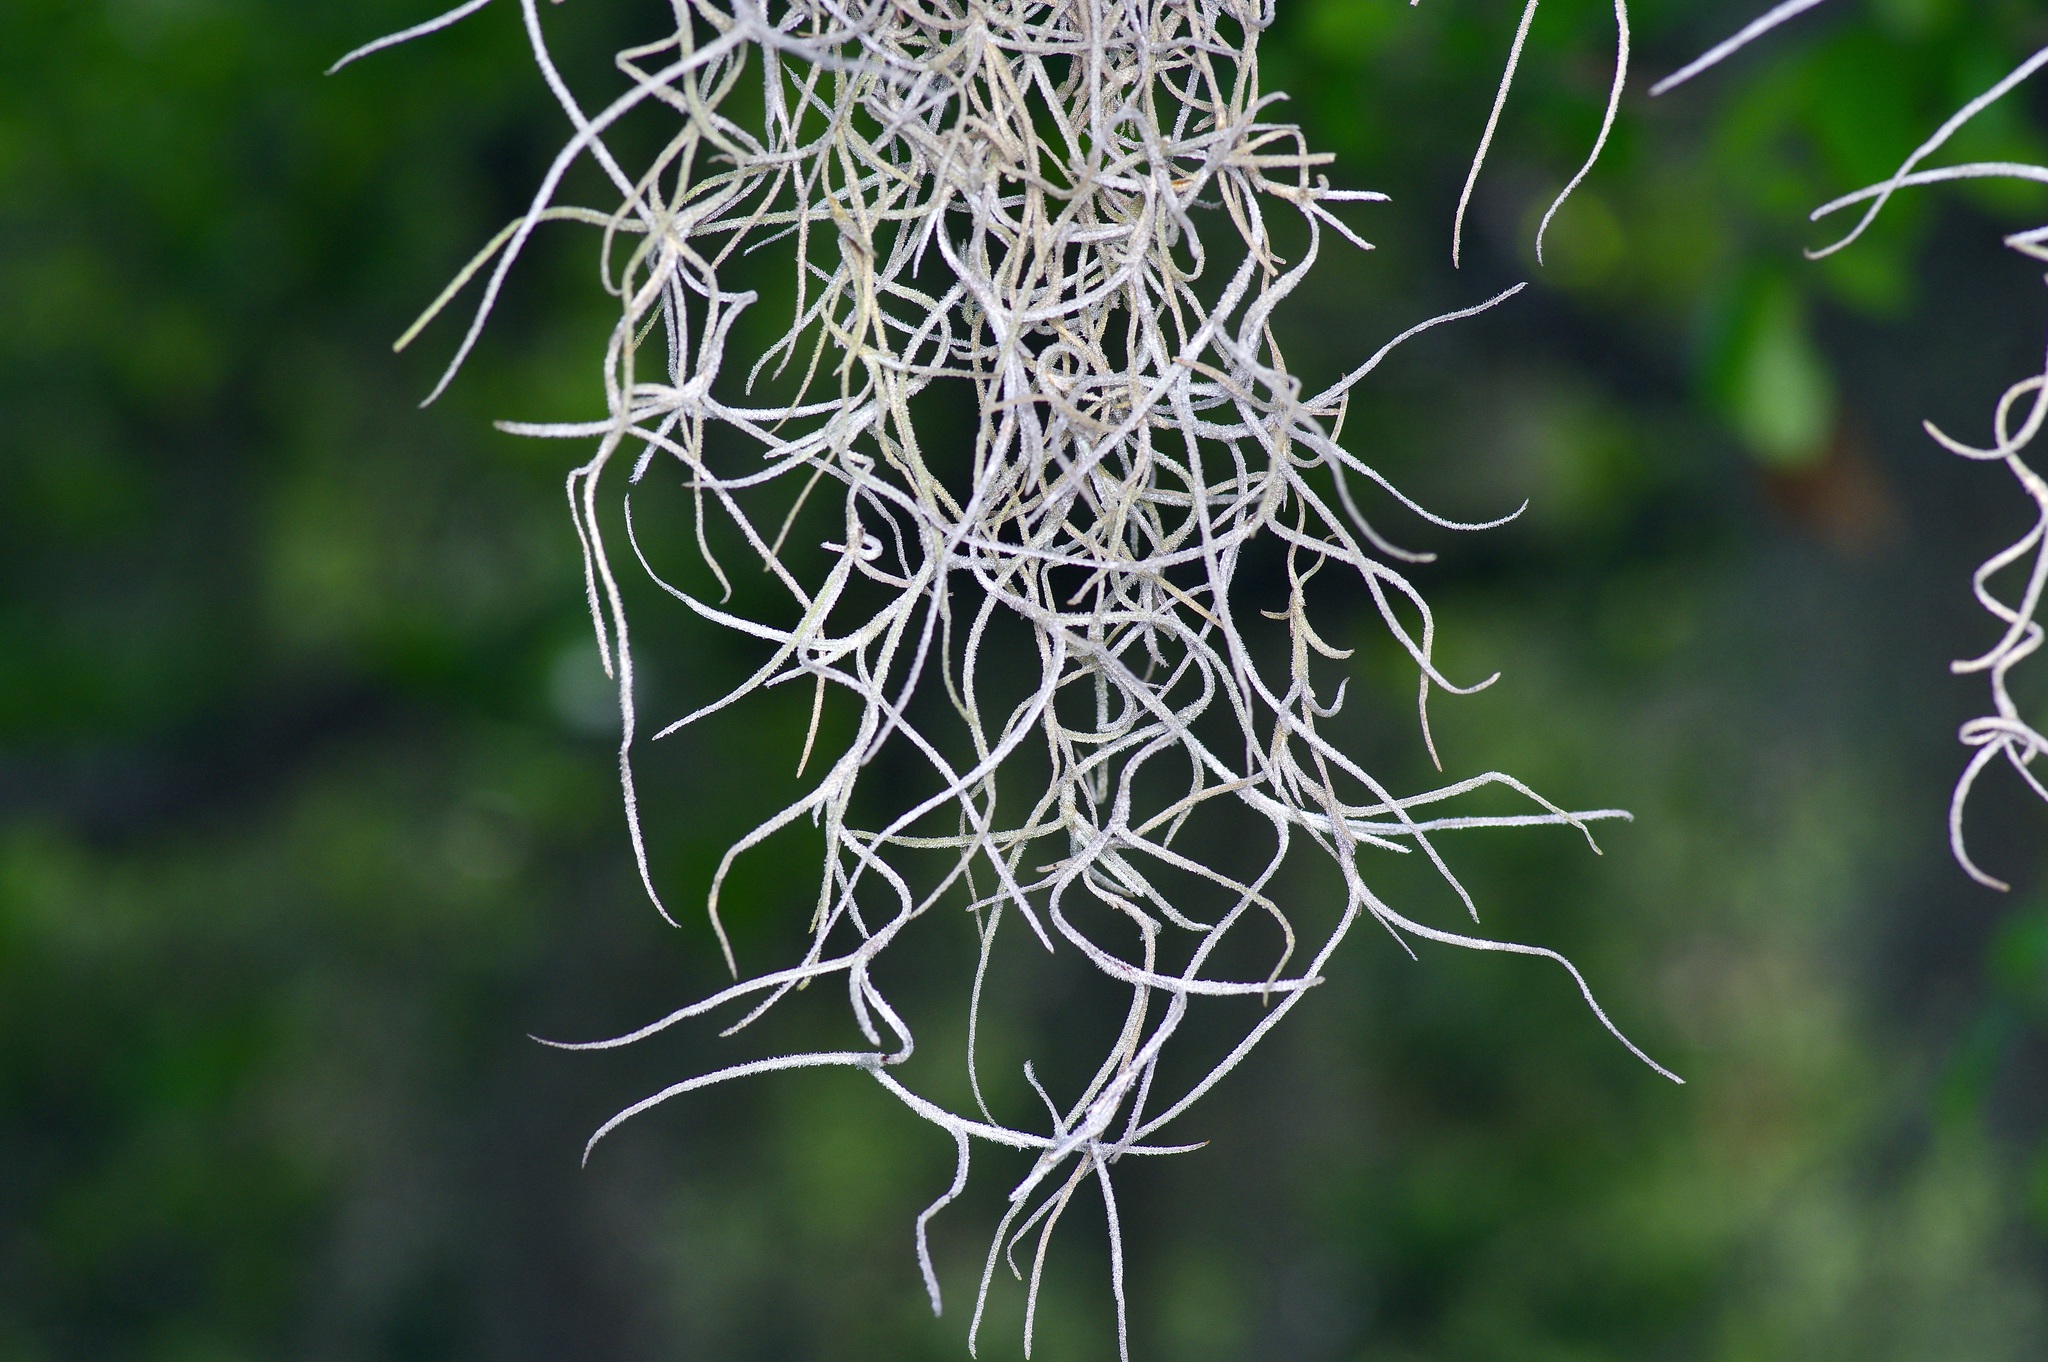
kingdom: Plantae
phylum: Tracheophyta
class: Liliopsida
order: Poales
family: Bromeliaceae
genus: Tillandsia
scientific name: Tillandsia usneoides
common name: Spanish moss
